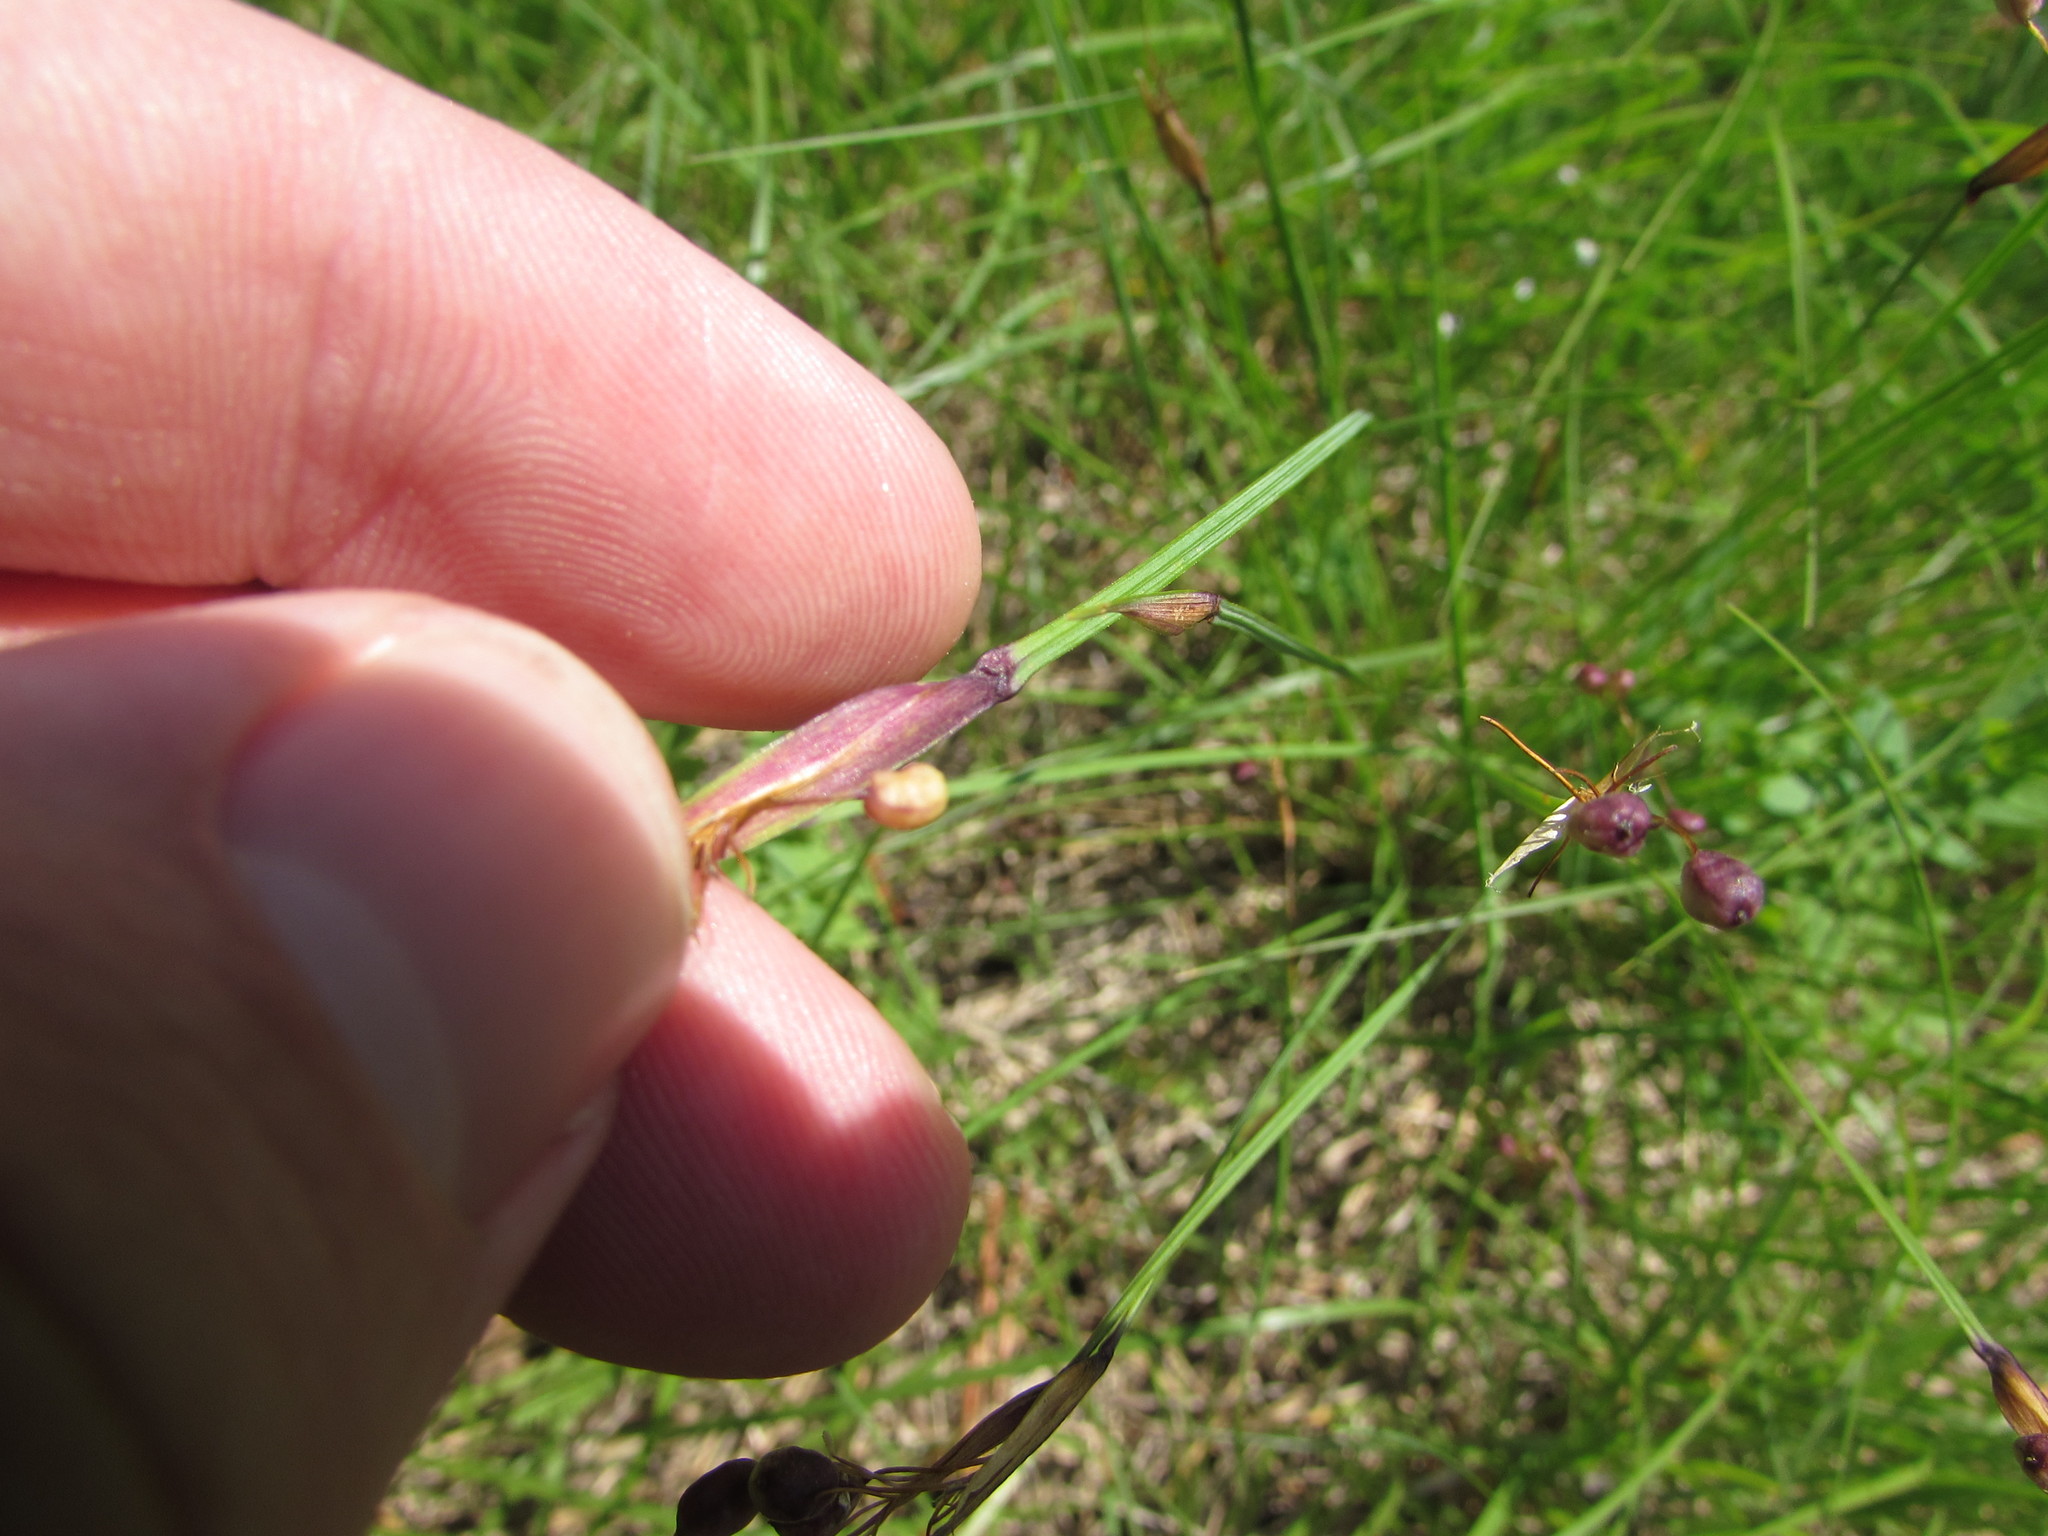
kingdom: Plantae
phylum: Tracheophyta
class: Liliopsida
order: Asparagales
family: Iridaceae
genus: Sisyrinchium
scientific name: Sisyrinchium angustifolium
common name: Narrow-leaf blue-eyed-grass
